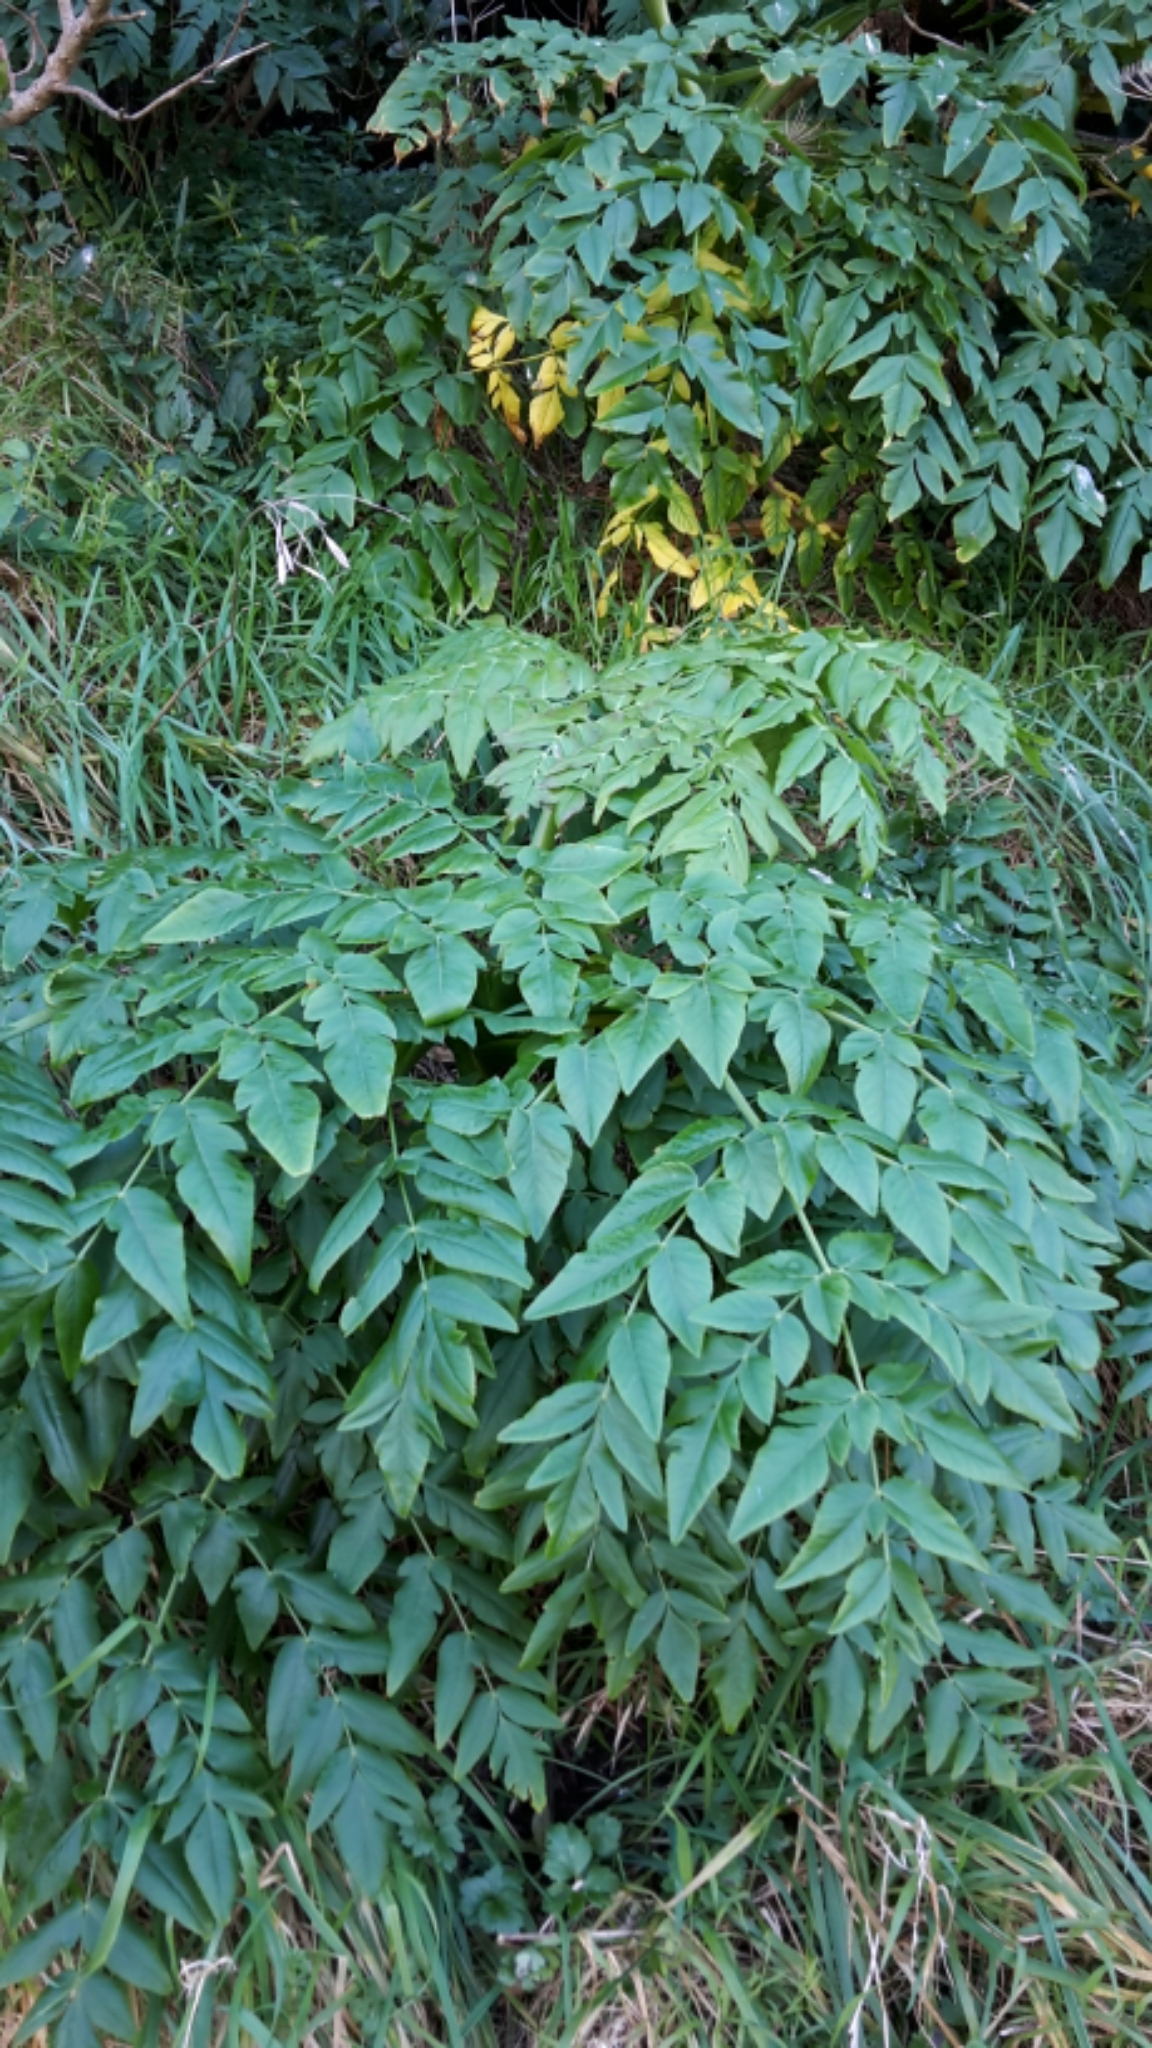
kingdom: Plantae
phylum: Tracheophyta
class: Magnoliopsida
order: Apiales
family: Apiaceae
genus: Daucus
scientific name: Daucus decipiens
